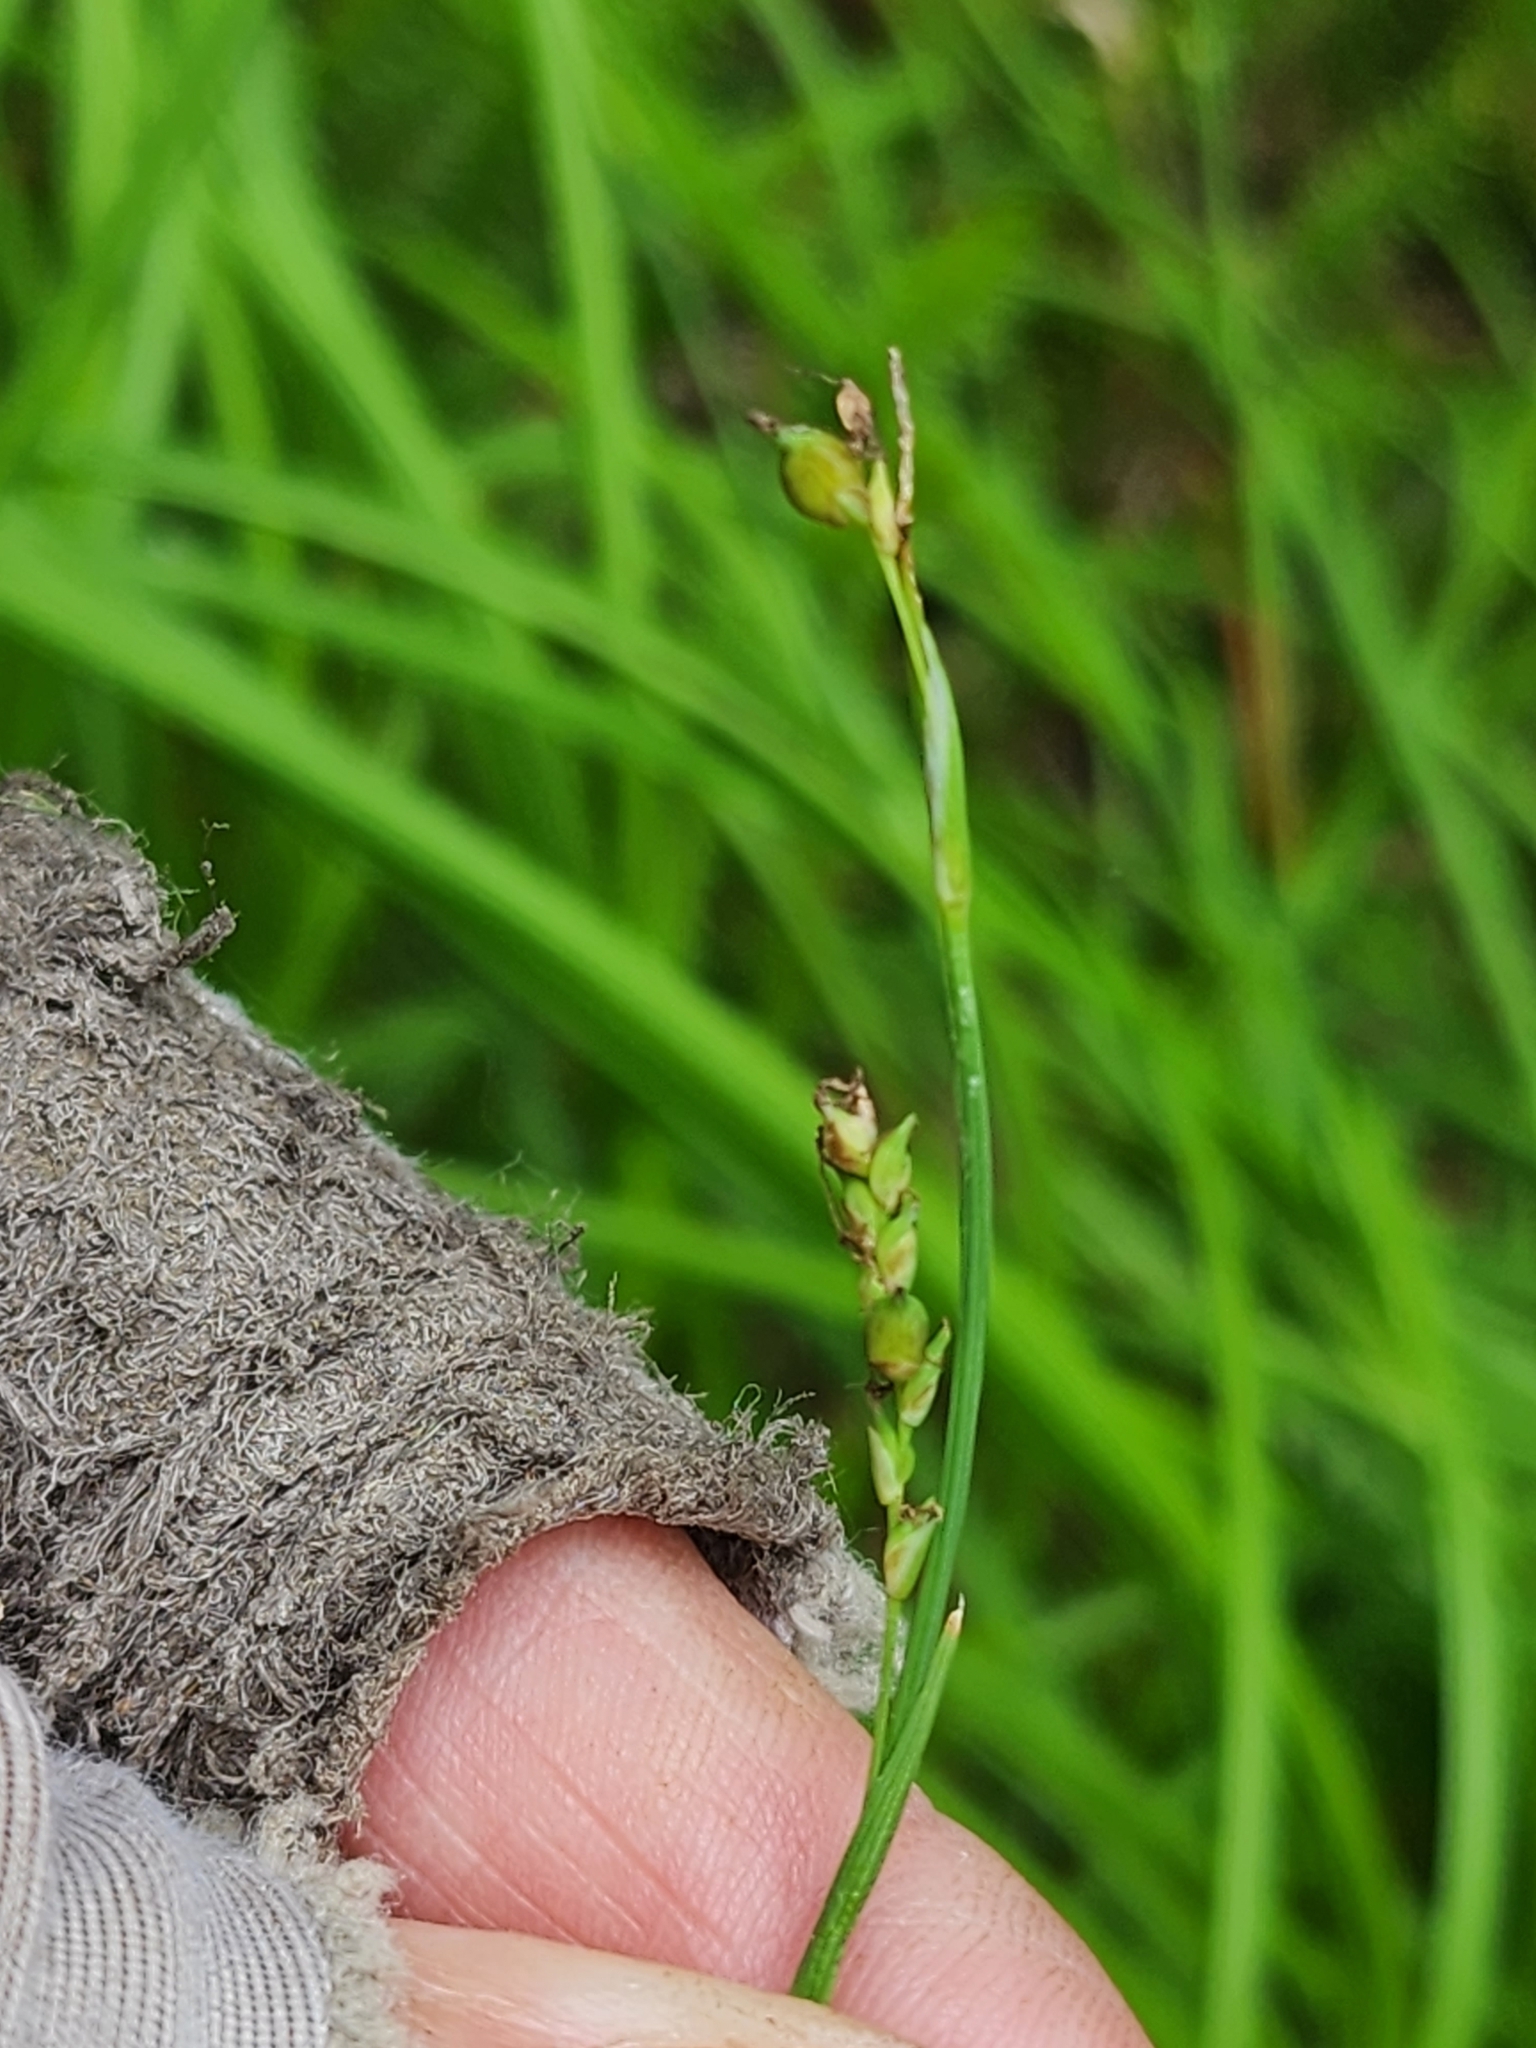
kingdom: Plantae
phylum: Tracheophyta
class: Liliopsida
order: Poales
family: Cyperaceae
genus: Carex
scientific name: Carex vaginata
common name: Sheathed sedge
